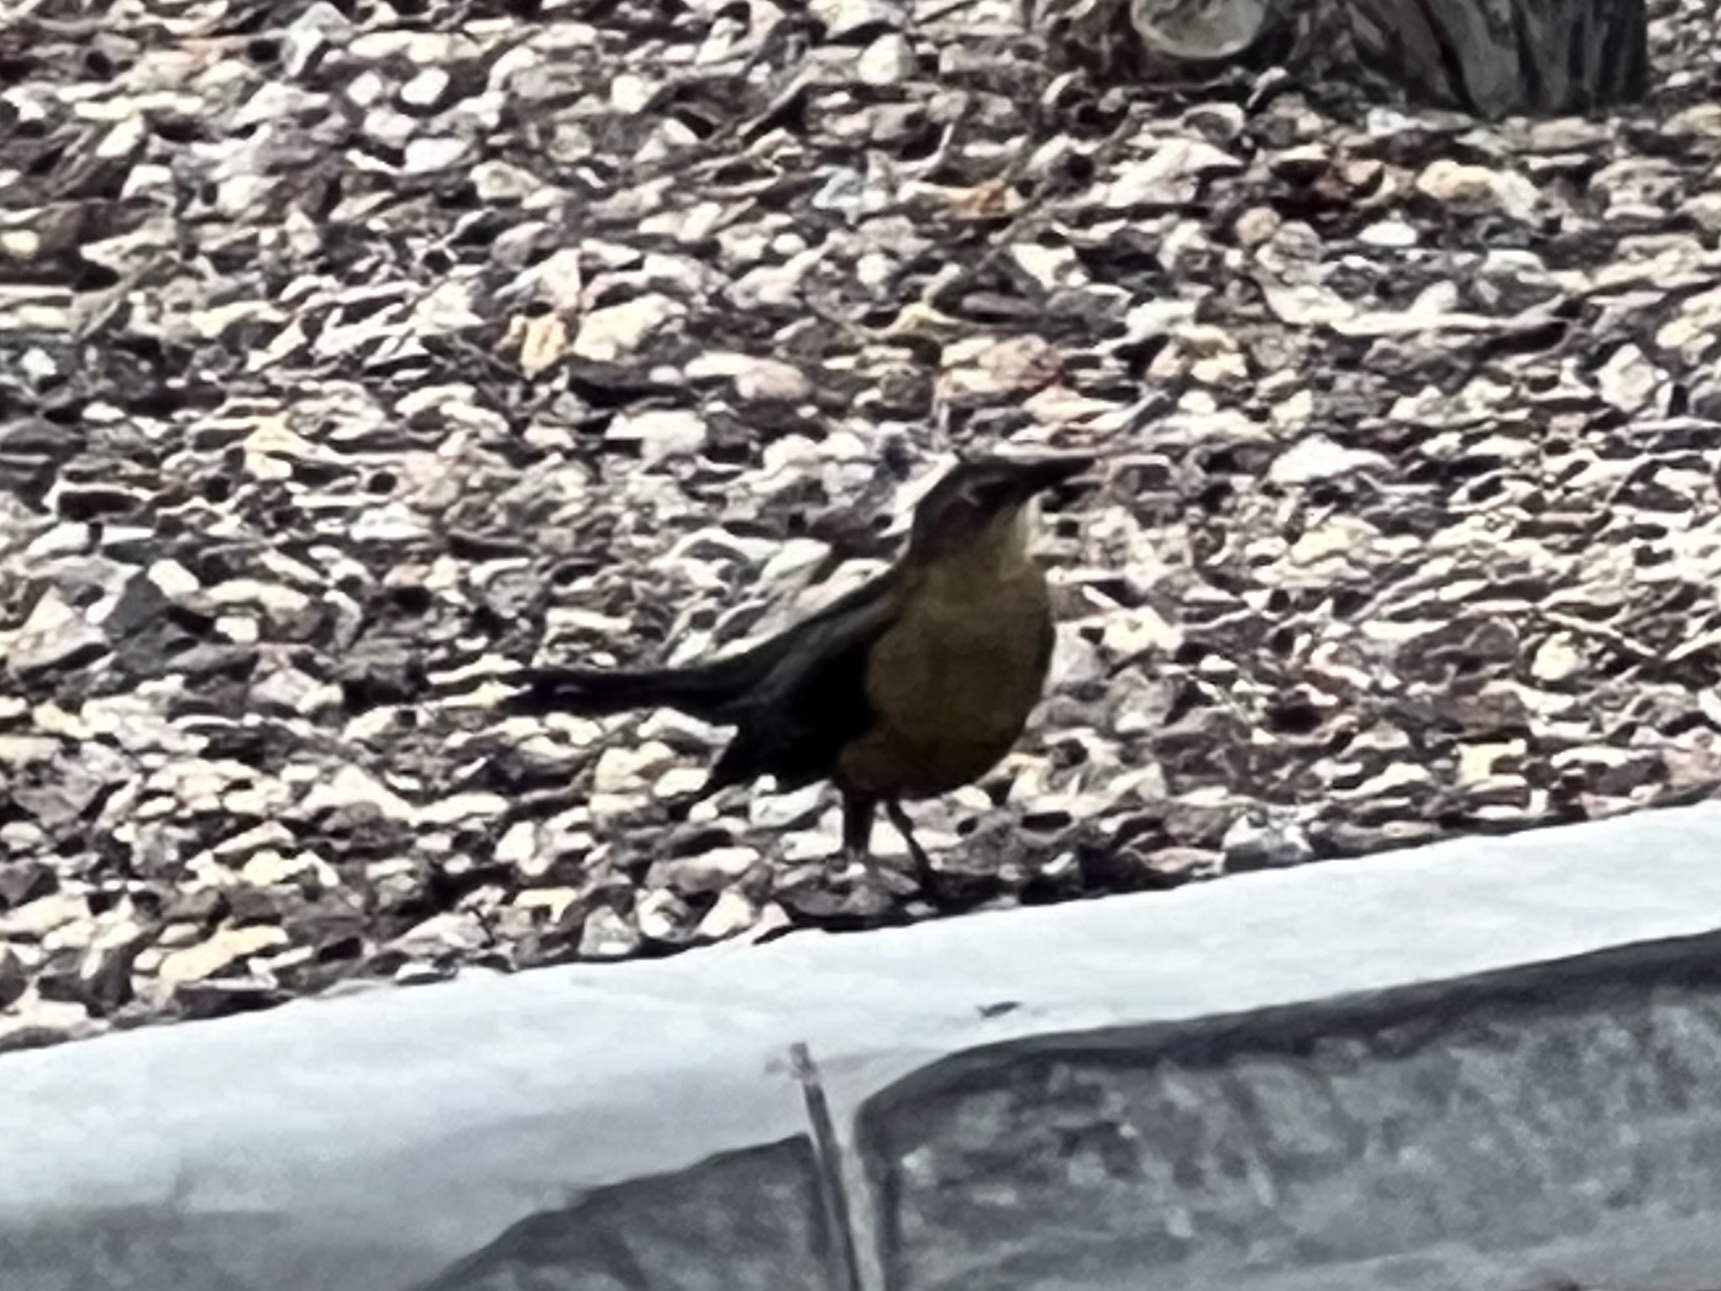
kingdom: Animalia
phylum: Chordata
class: Aves
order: Passeriformes
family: Icteridae
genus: Quiscalus
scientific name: Quiscalus mexicanus
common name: Great-tailed grackle
